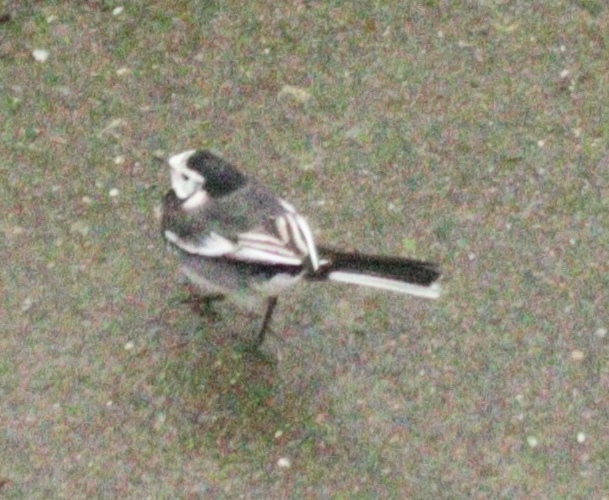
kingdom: Animalia
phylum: Chordata
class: Aves
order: Passeriformes
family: Motacillidae
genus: Motacilla
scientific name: Motacilla alba
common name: White wagtail
